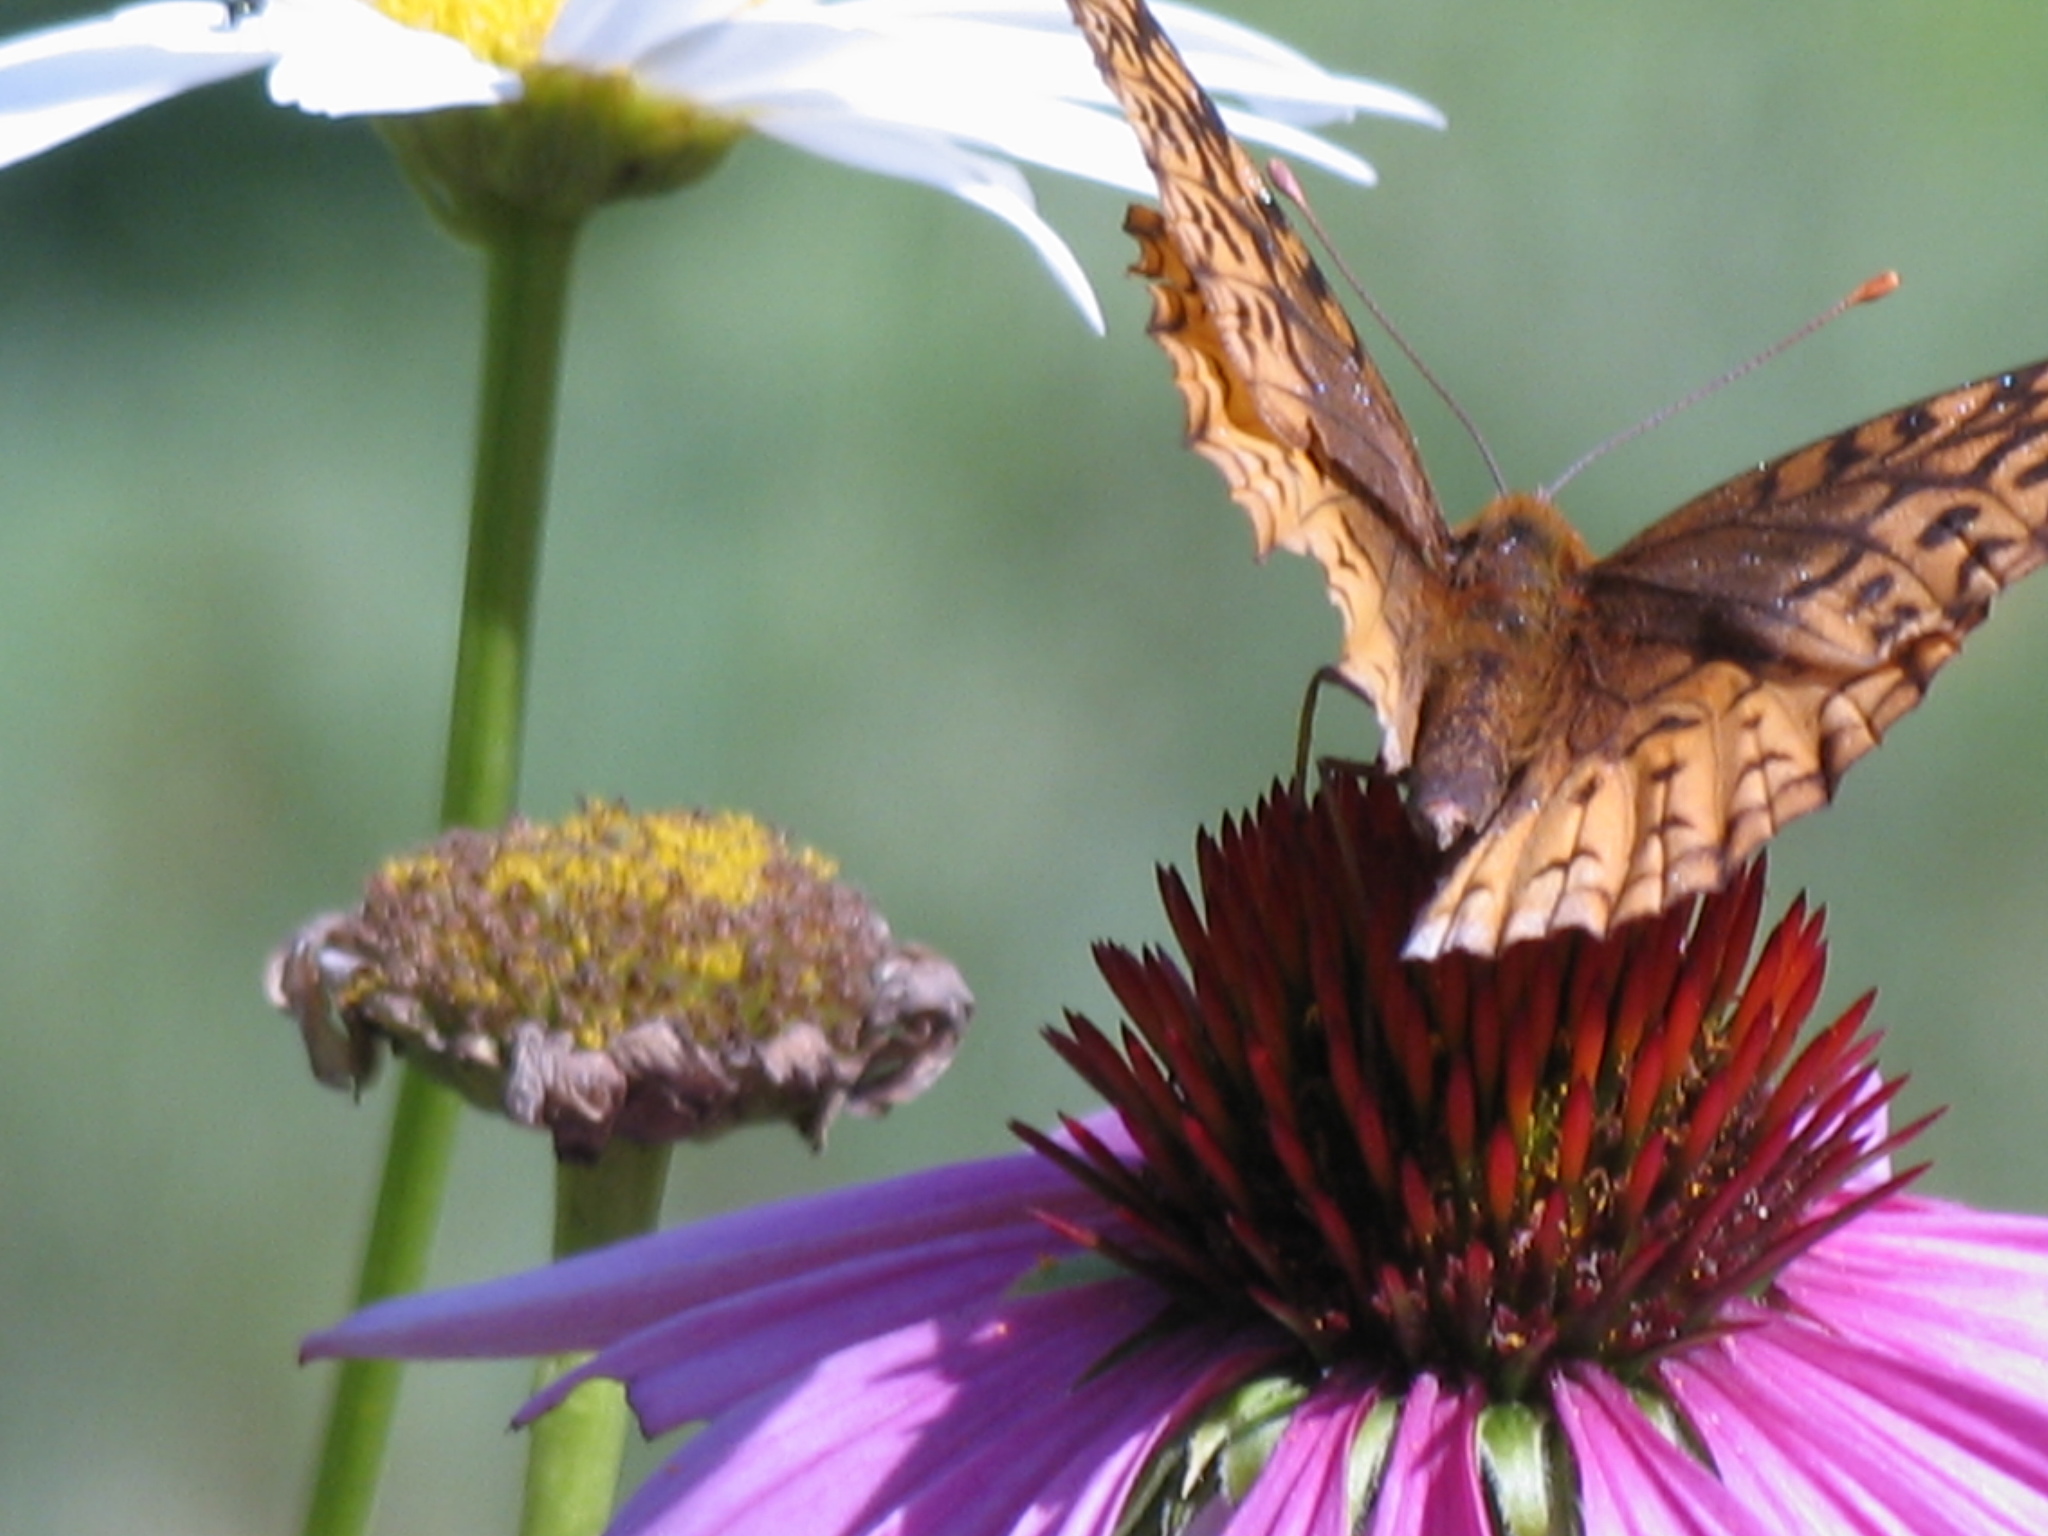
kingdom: Animalia
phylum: Arthropoda
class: Insecta
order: Lepidoptera
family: Nymphalidae
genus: Speyeria
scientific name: Speyeria cybele
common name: Great spangled fritillary
